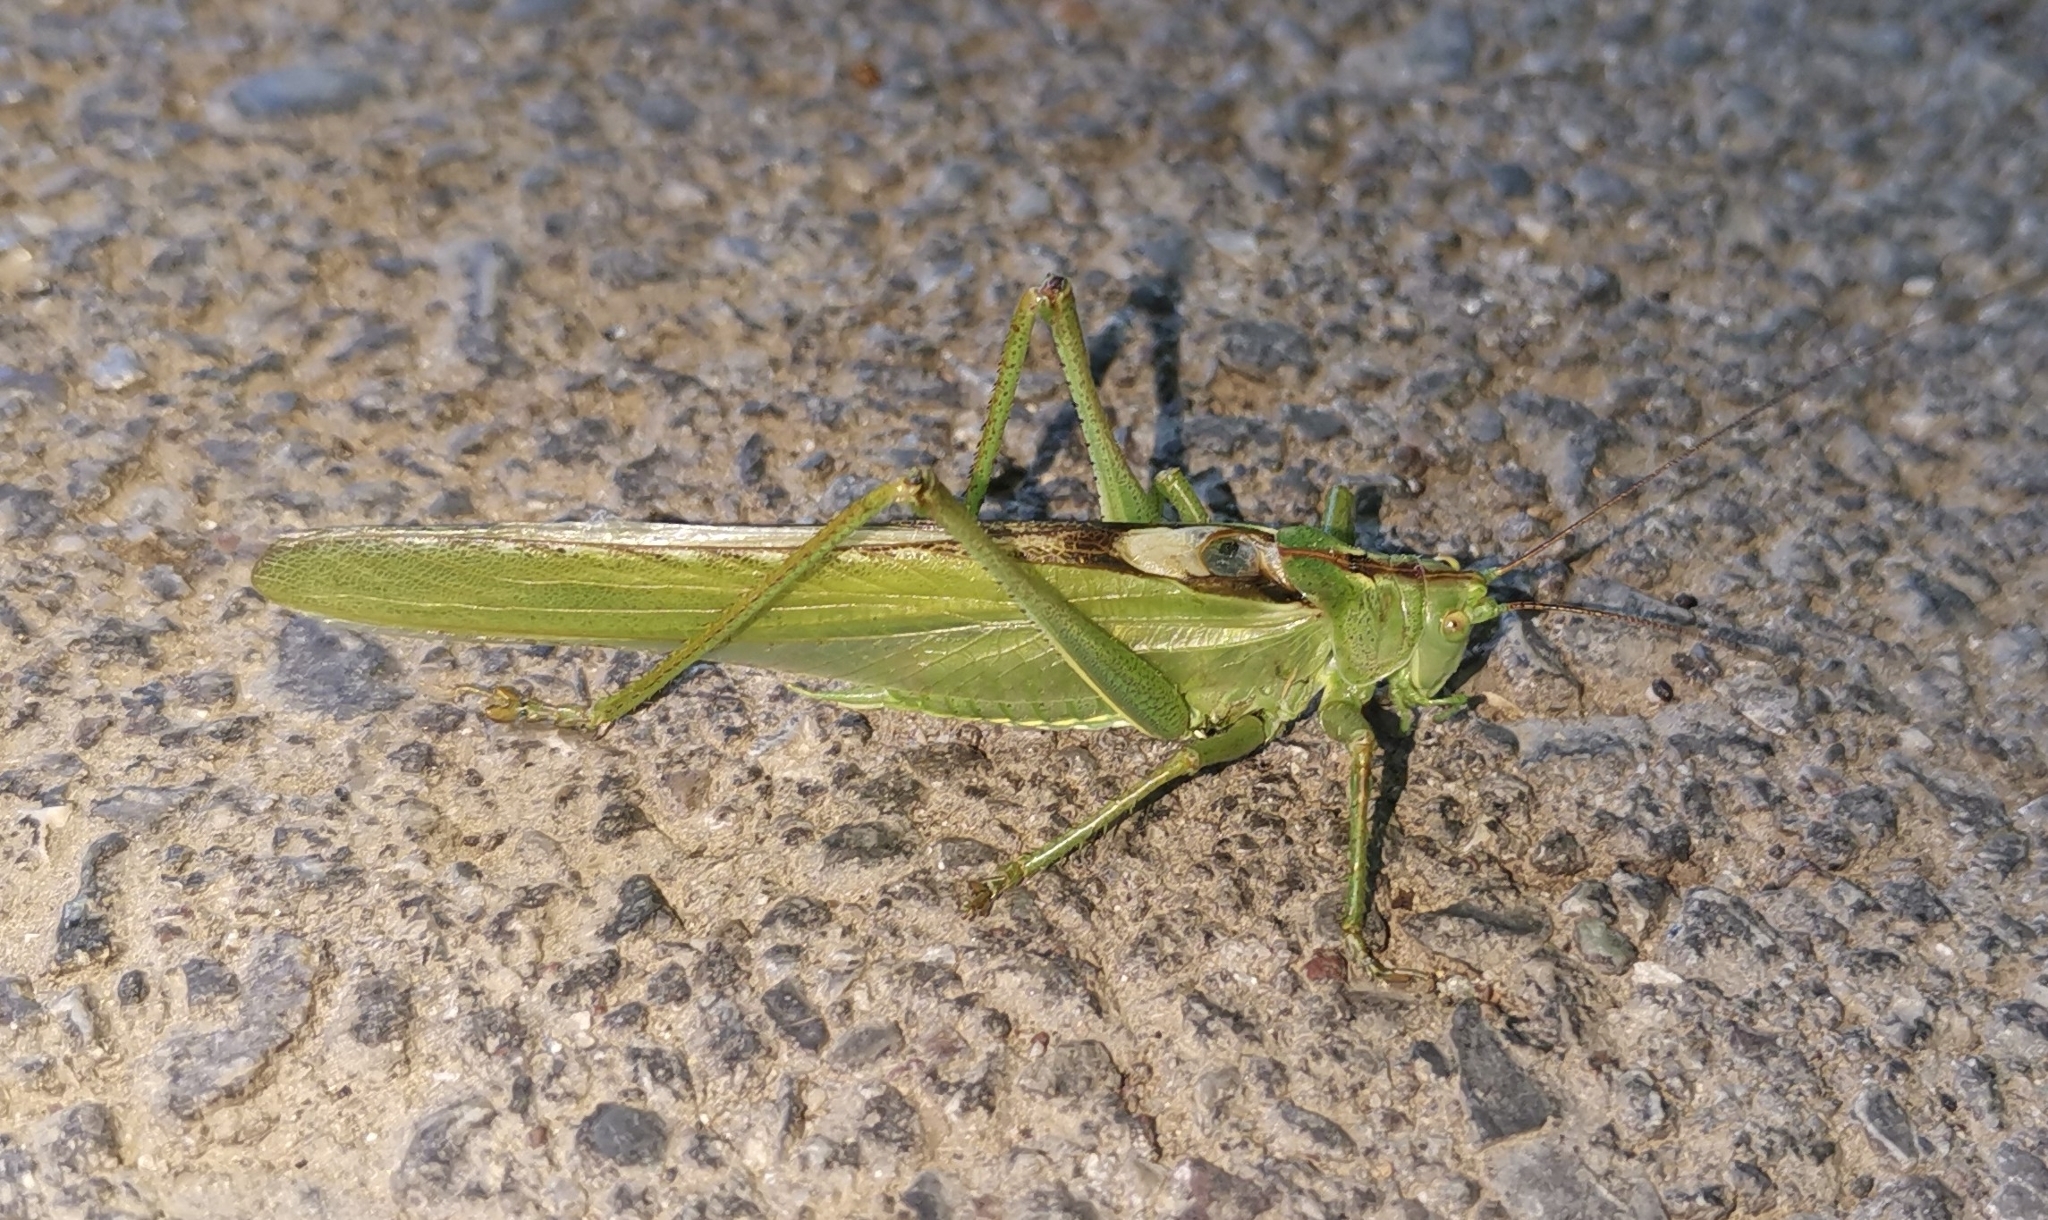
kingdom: Animalia
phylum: Arthropoda
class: Insecta
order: Orthoptera
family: Tettigoniidae
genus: Tettigonia
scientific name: Tettigonia viridissima
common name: Great green bush-cricket
